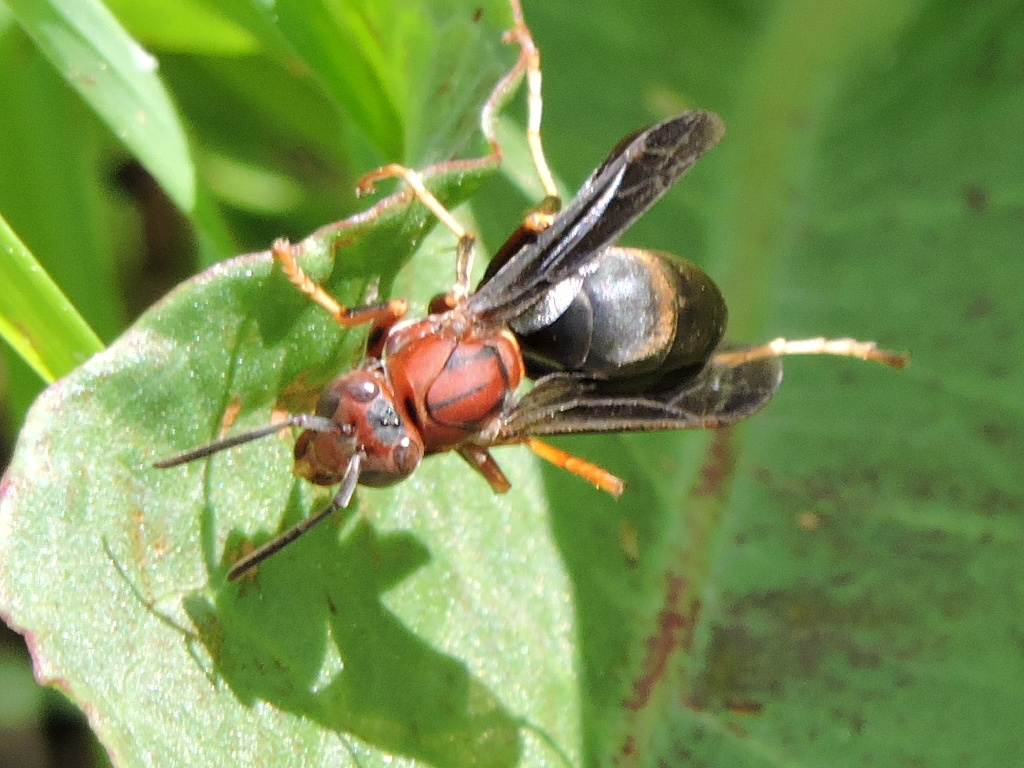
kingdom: Animalia
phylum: Arthropoda
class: Insecta
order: Hymenoptera
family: Eumenidae
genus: Polistes
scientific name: Polistes metricus
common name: Metric paper wasp
